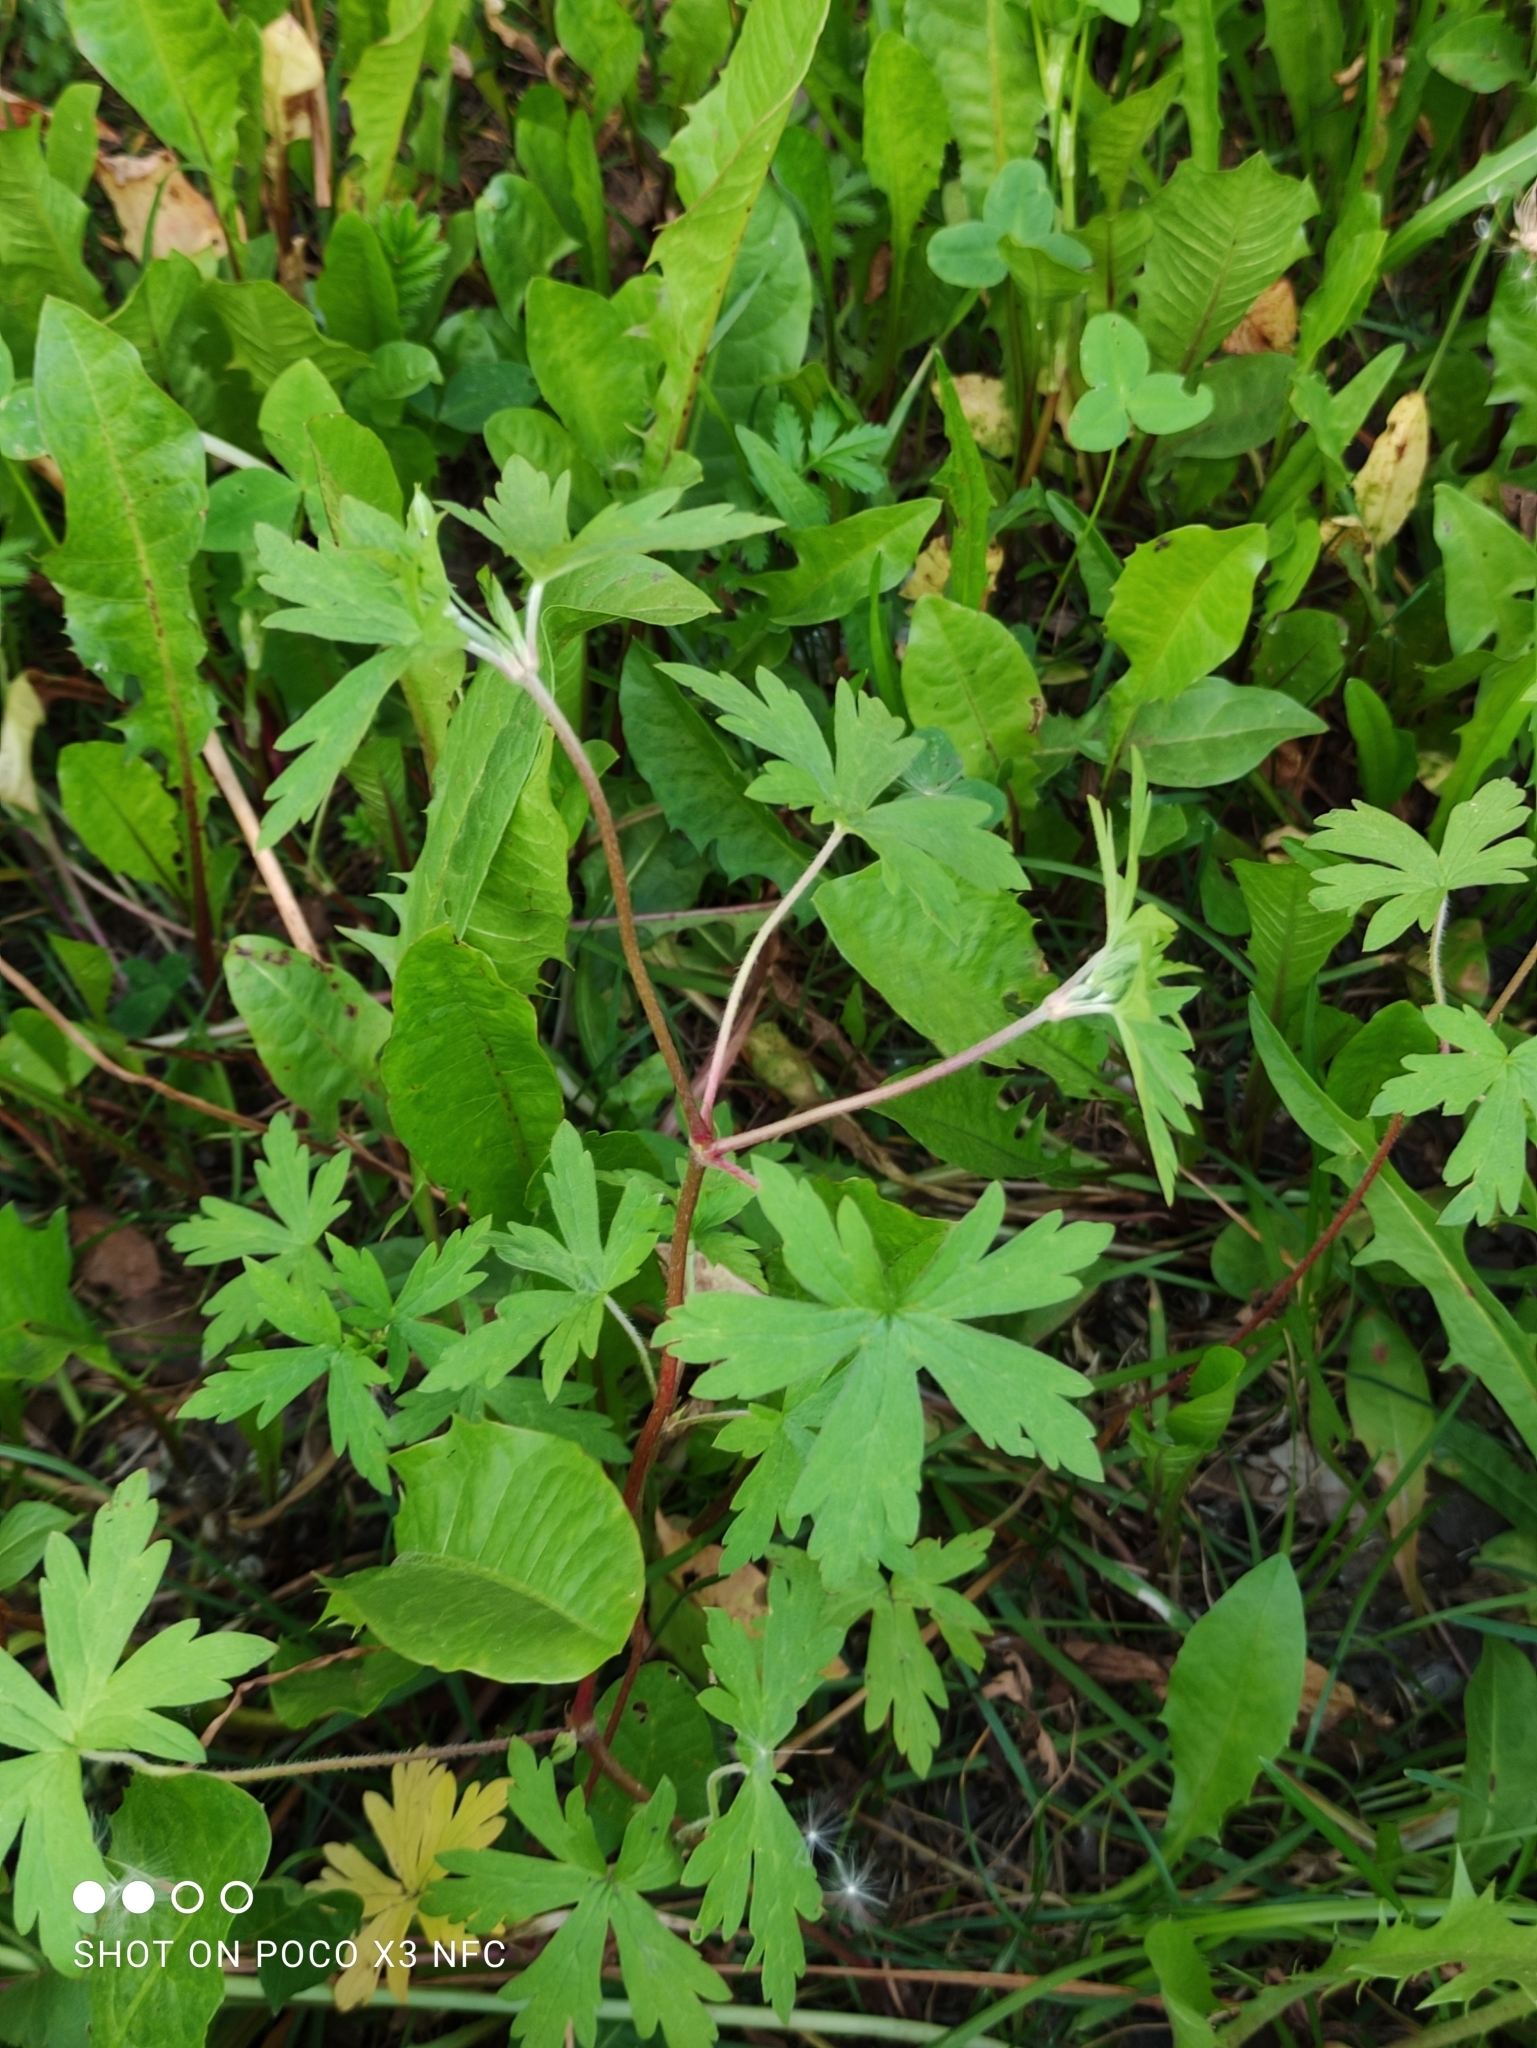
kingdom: Plantae
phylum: Tracheophyta
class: Magnoliopsida
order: Geraniales
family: Geraniaceae
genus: Geranium
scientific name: Geranium sibiricum
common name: Siberian crane's-bill
